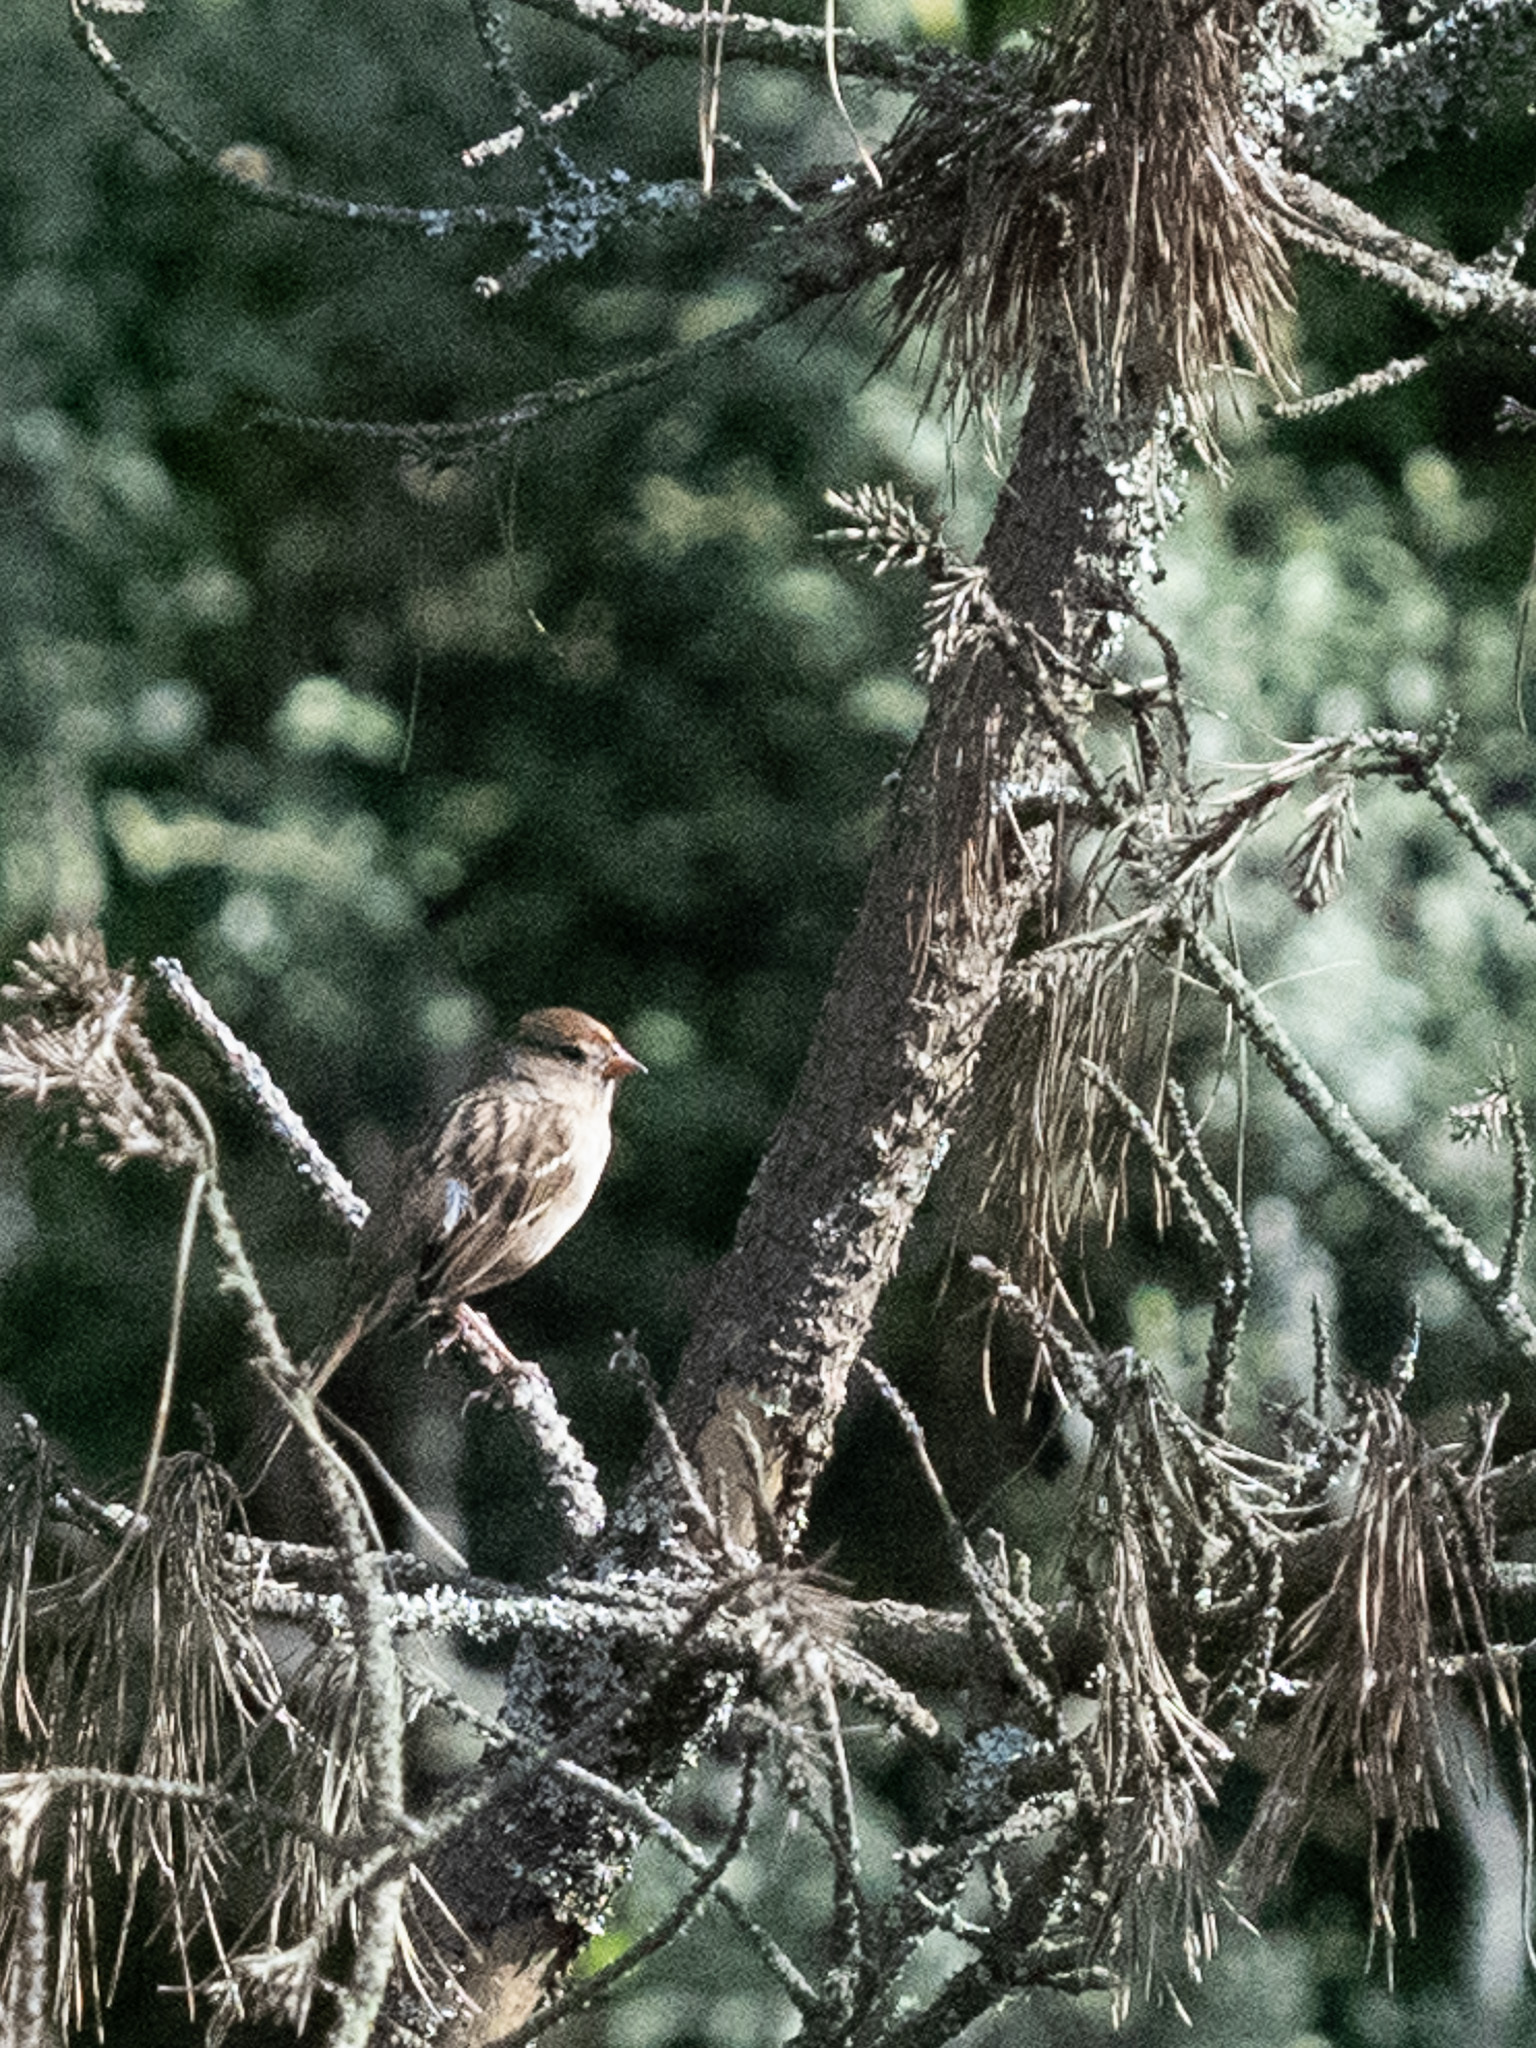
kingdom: Animalia
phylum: Chordata
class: Aves
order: Passeriformes
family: Passerellidae
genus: Zonotrichia
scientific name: Zonotrichia leucophrys
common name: White-crowned sparrow
